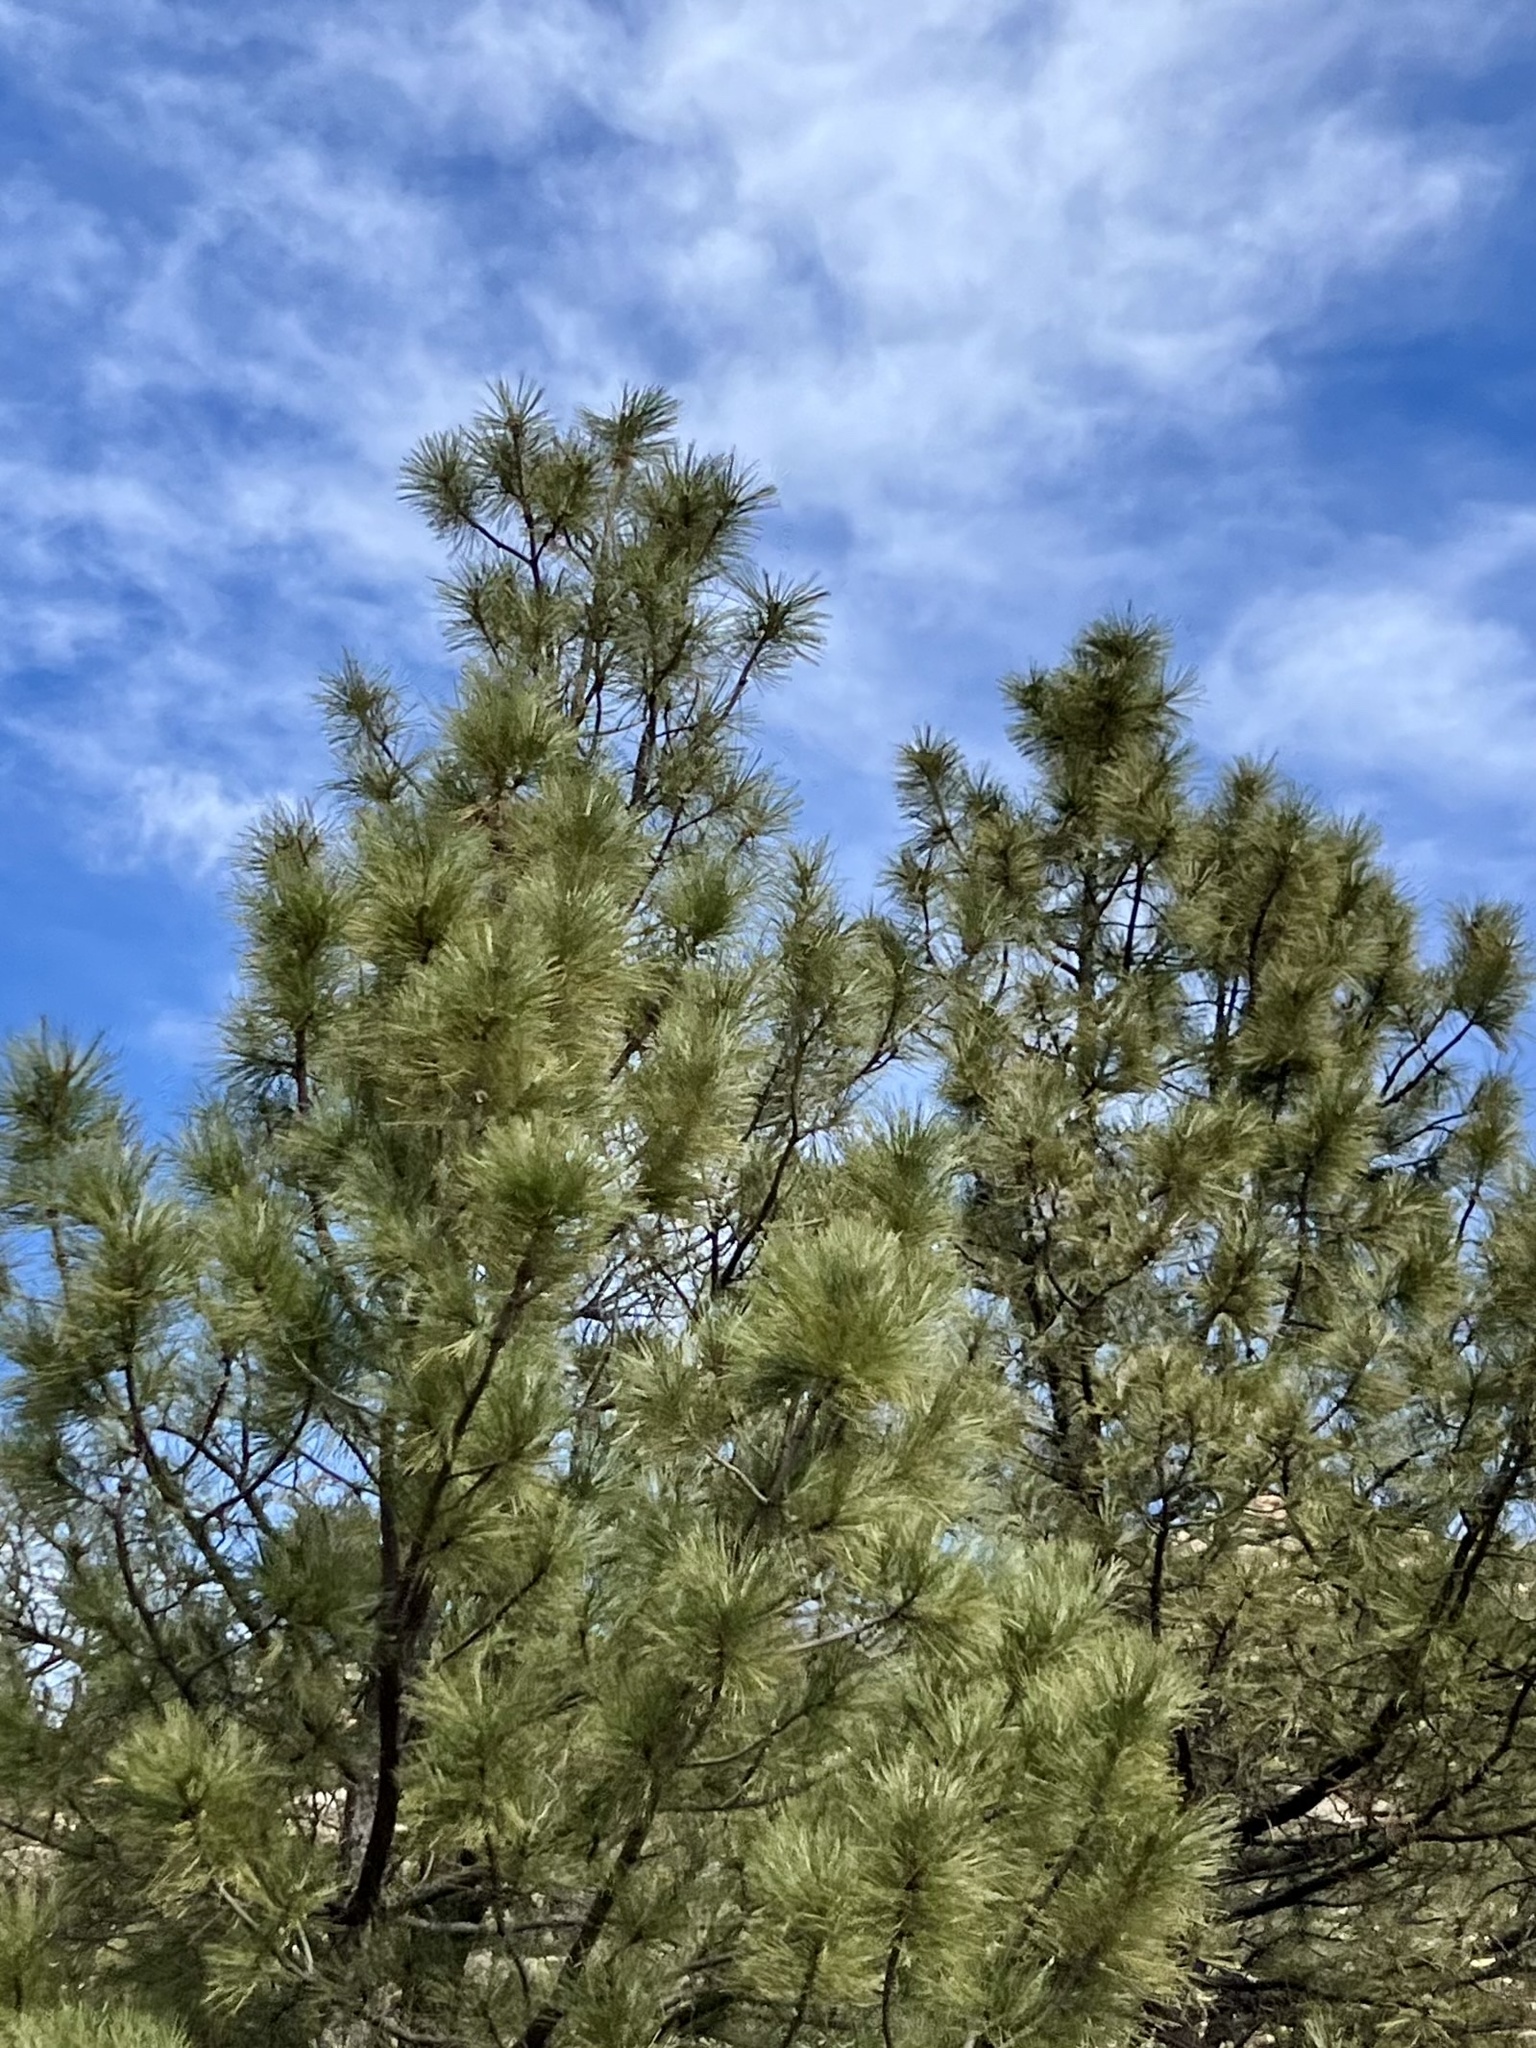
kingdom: Plantae
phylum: Tracheophyta
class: Pinopsida
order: Pinales
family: Pinaceae
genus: Pinus
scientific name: Pinus ponderosa
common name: Western yellow-pine
